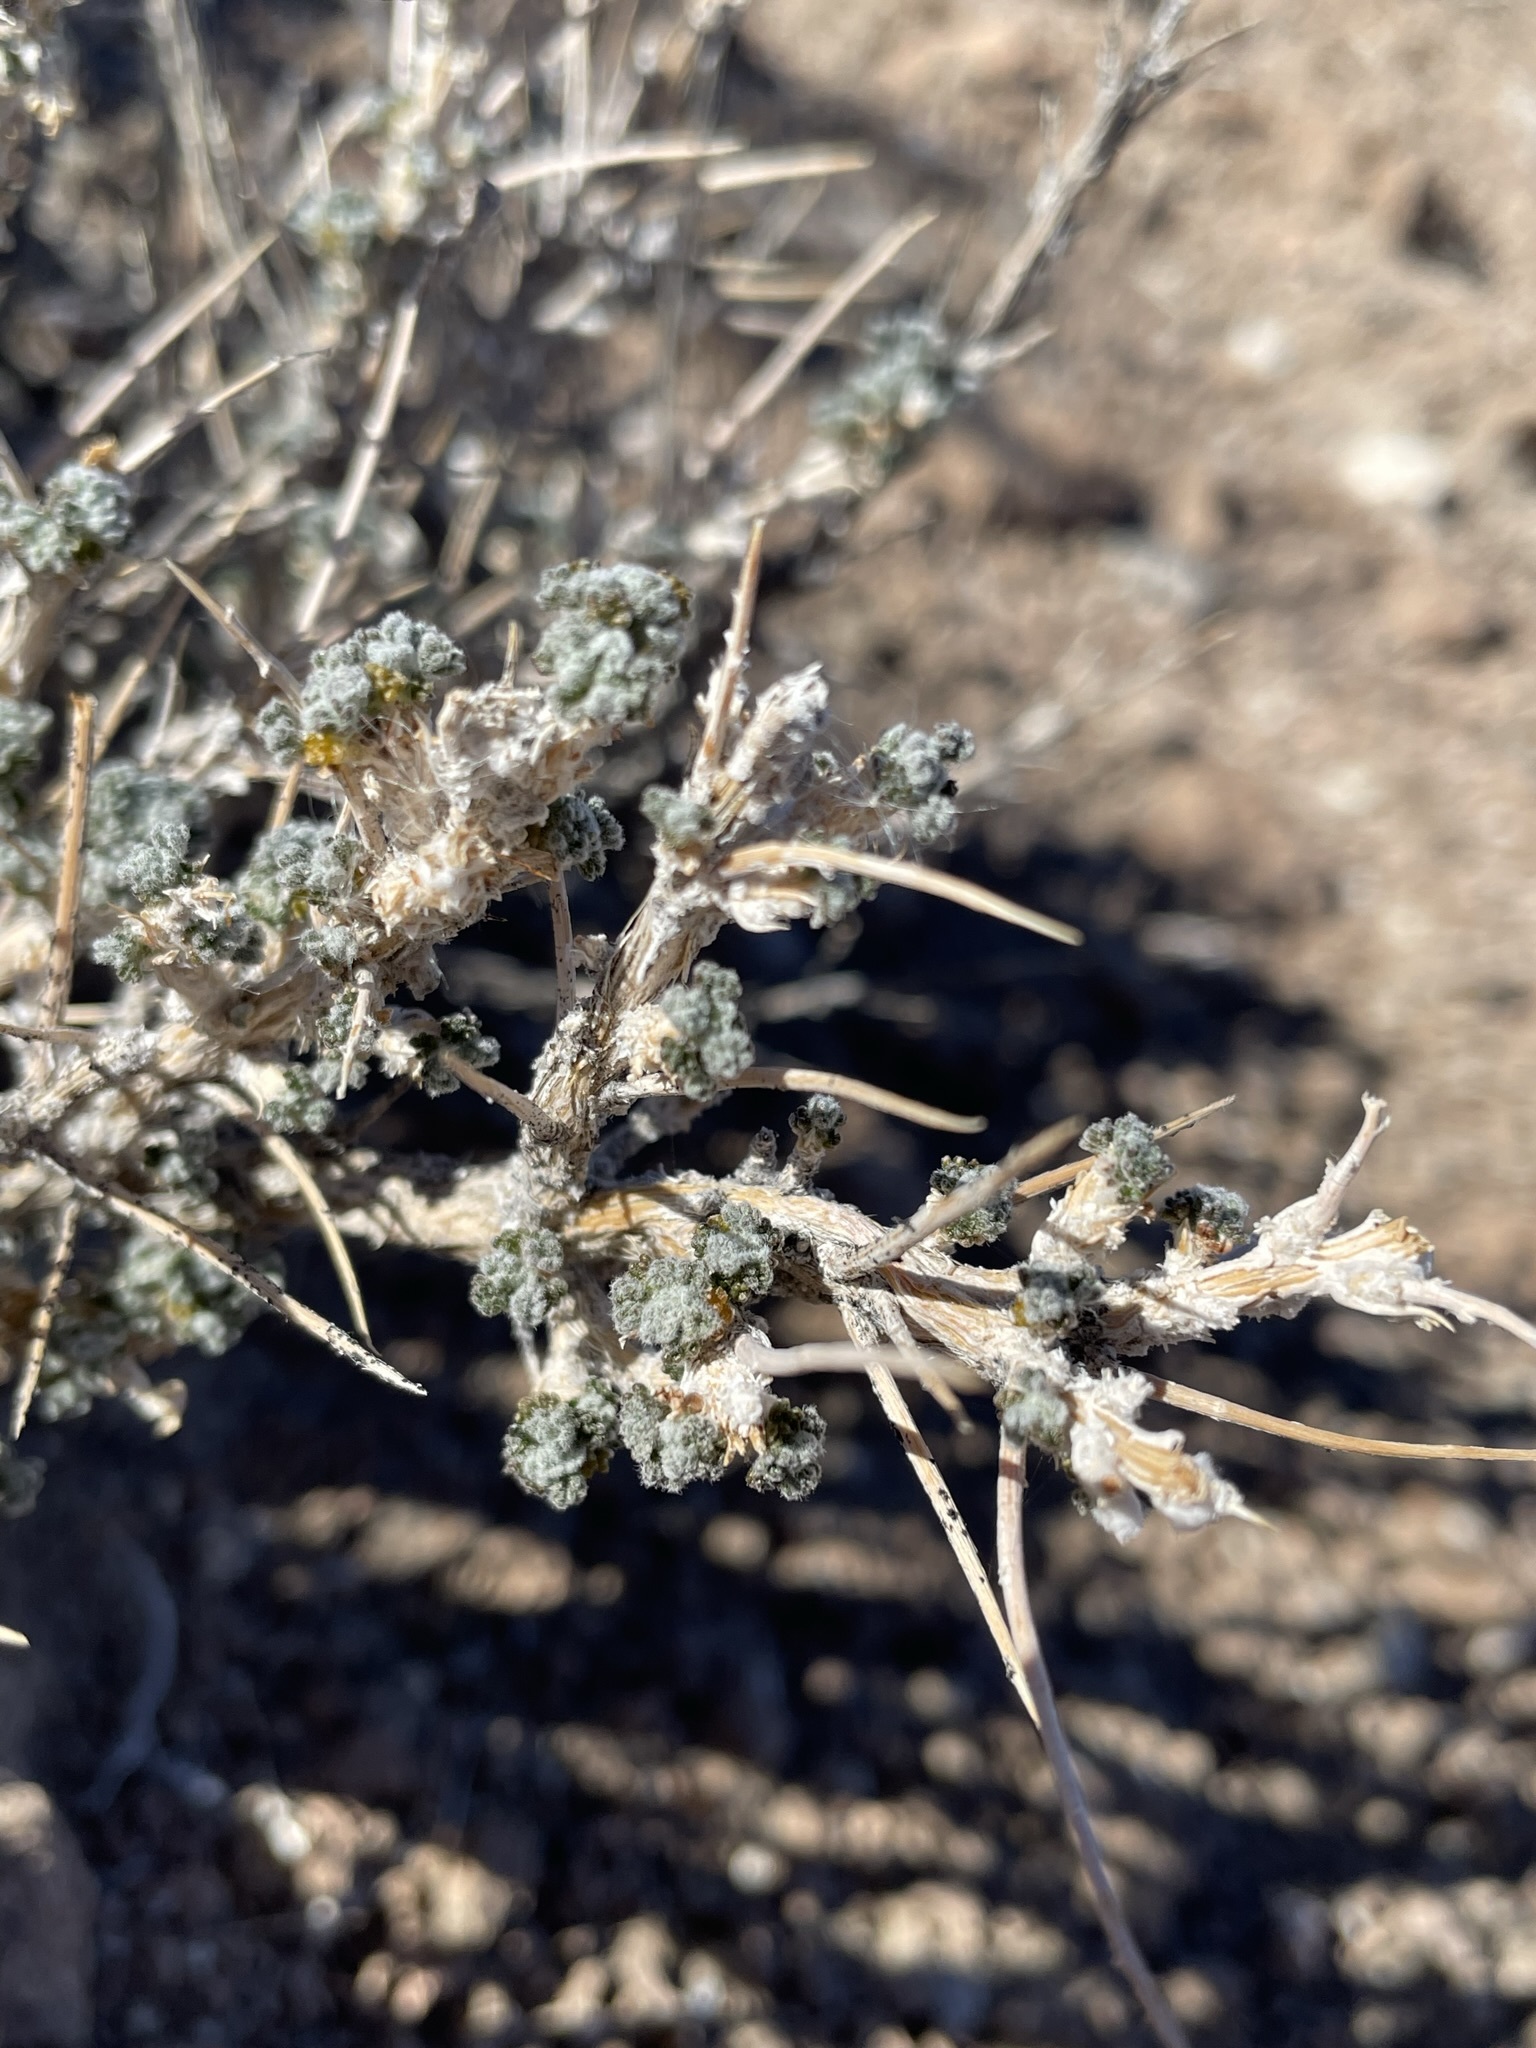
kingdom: Plantae
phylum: Tracheophyta
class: Magnoliopsida
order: Asterales
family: Asteraceae
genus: Artemisia
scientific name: Artemisia spinescens
